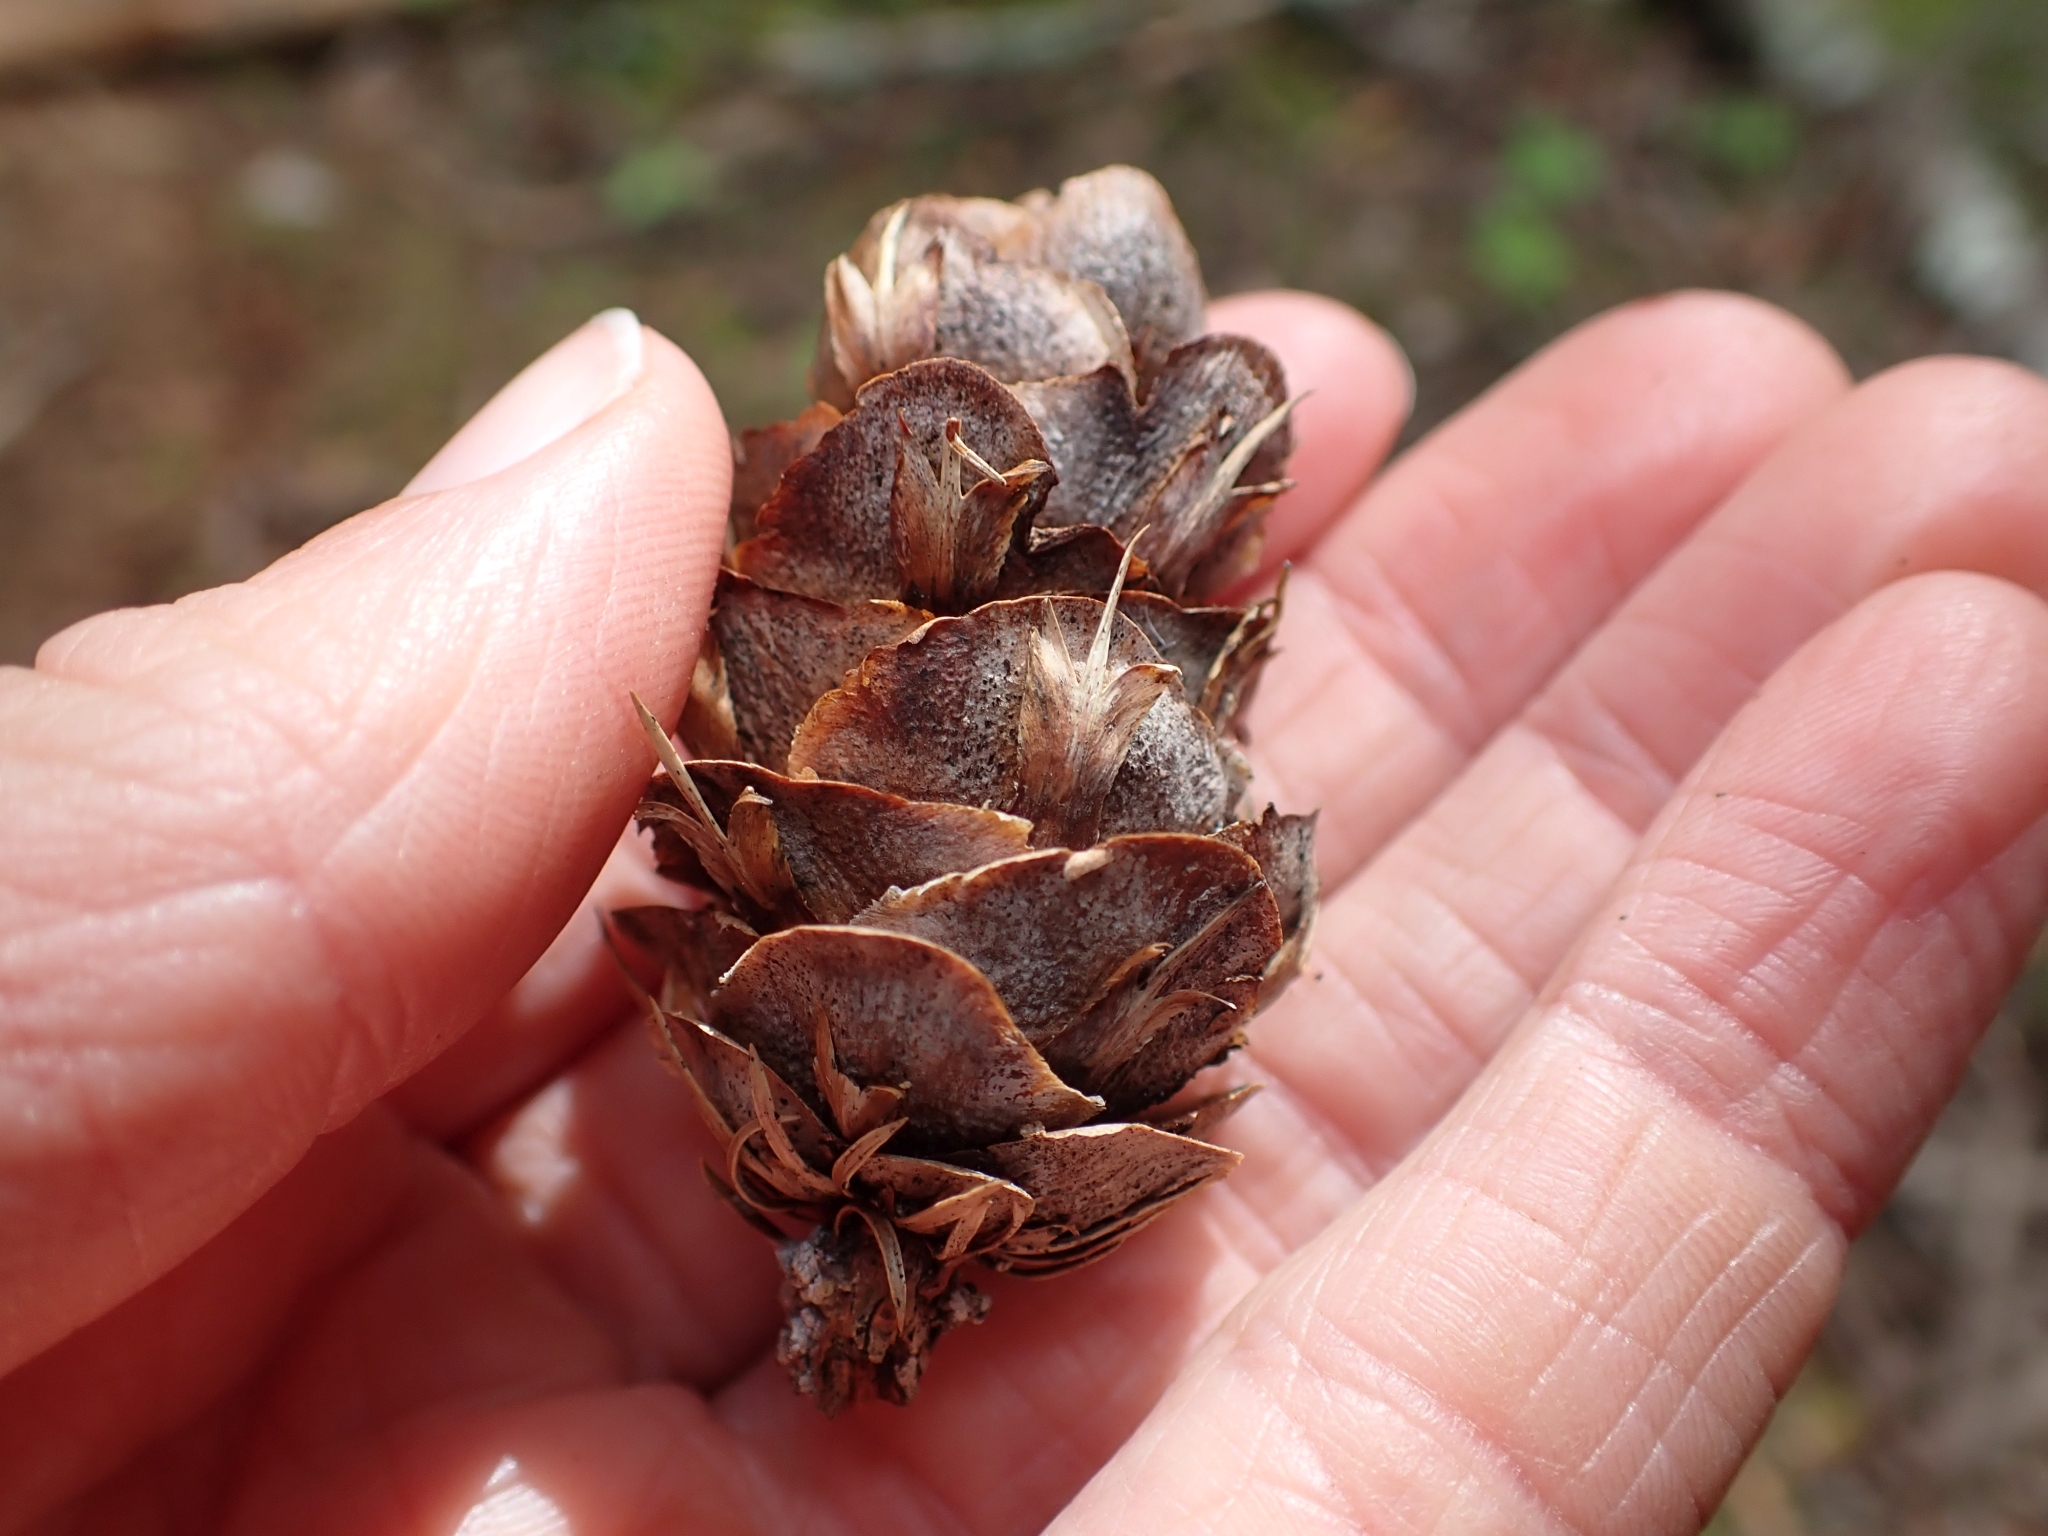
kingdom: Plantae
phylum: Tracheophyta
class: Pinopsida
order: Pinales
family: Pinaceae
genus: Pseudotsuga
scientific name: Pseudotsuga menziesii
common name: Douglas fir
